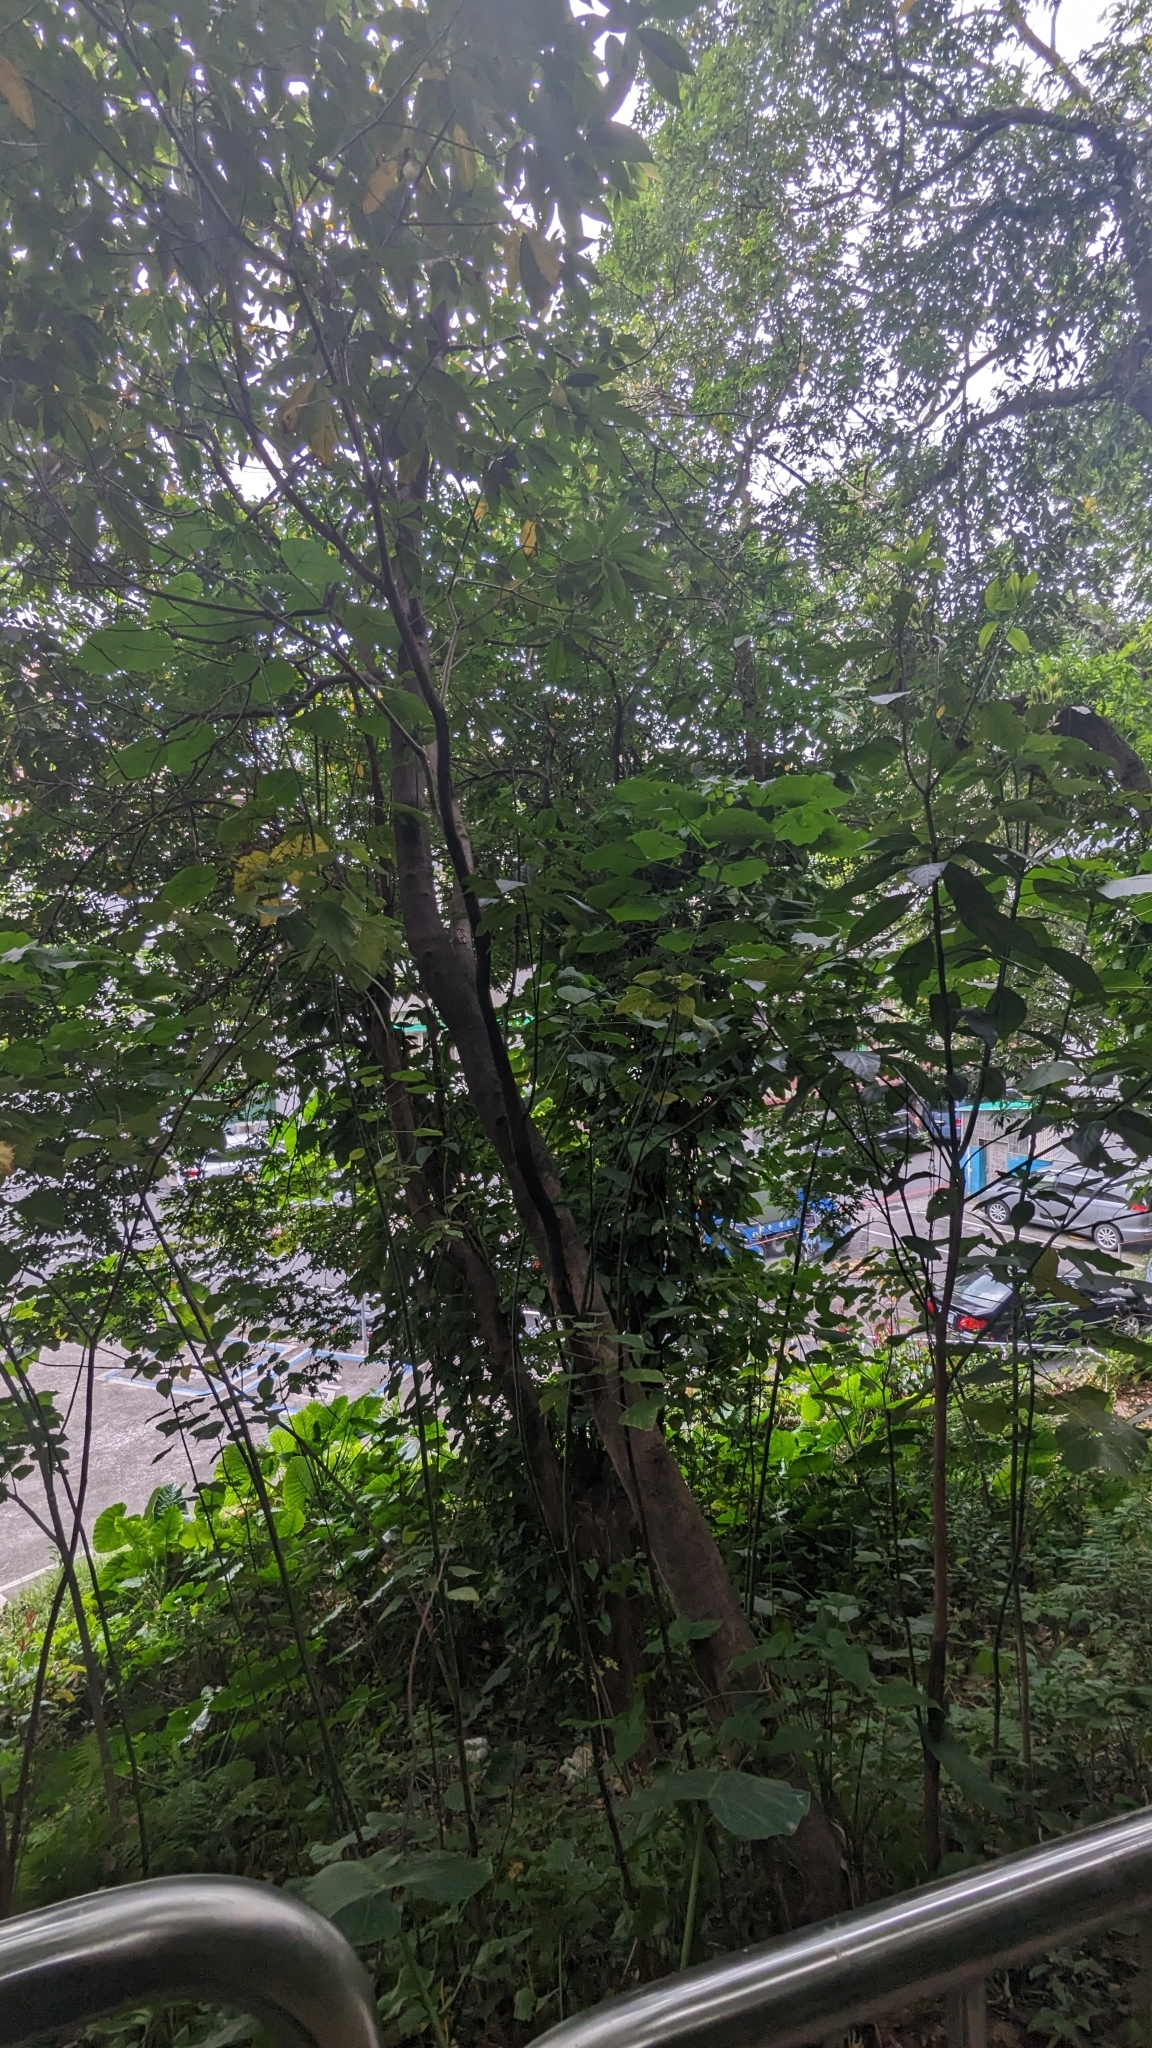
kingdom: Plantae
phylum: Tracheophyta
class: Magnoliopsida
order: Laurales
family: Lauraceae
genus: Lindera
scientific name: Lindera megaphylla
